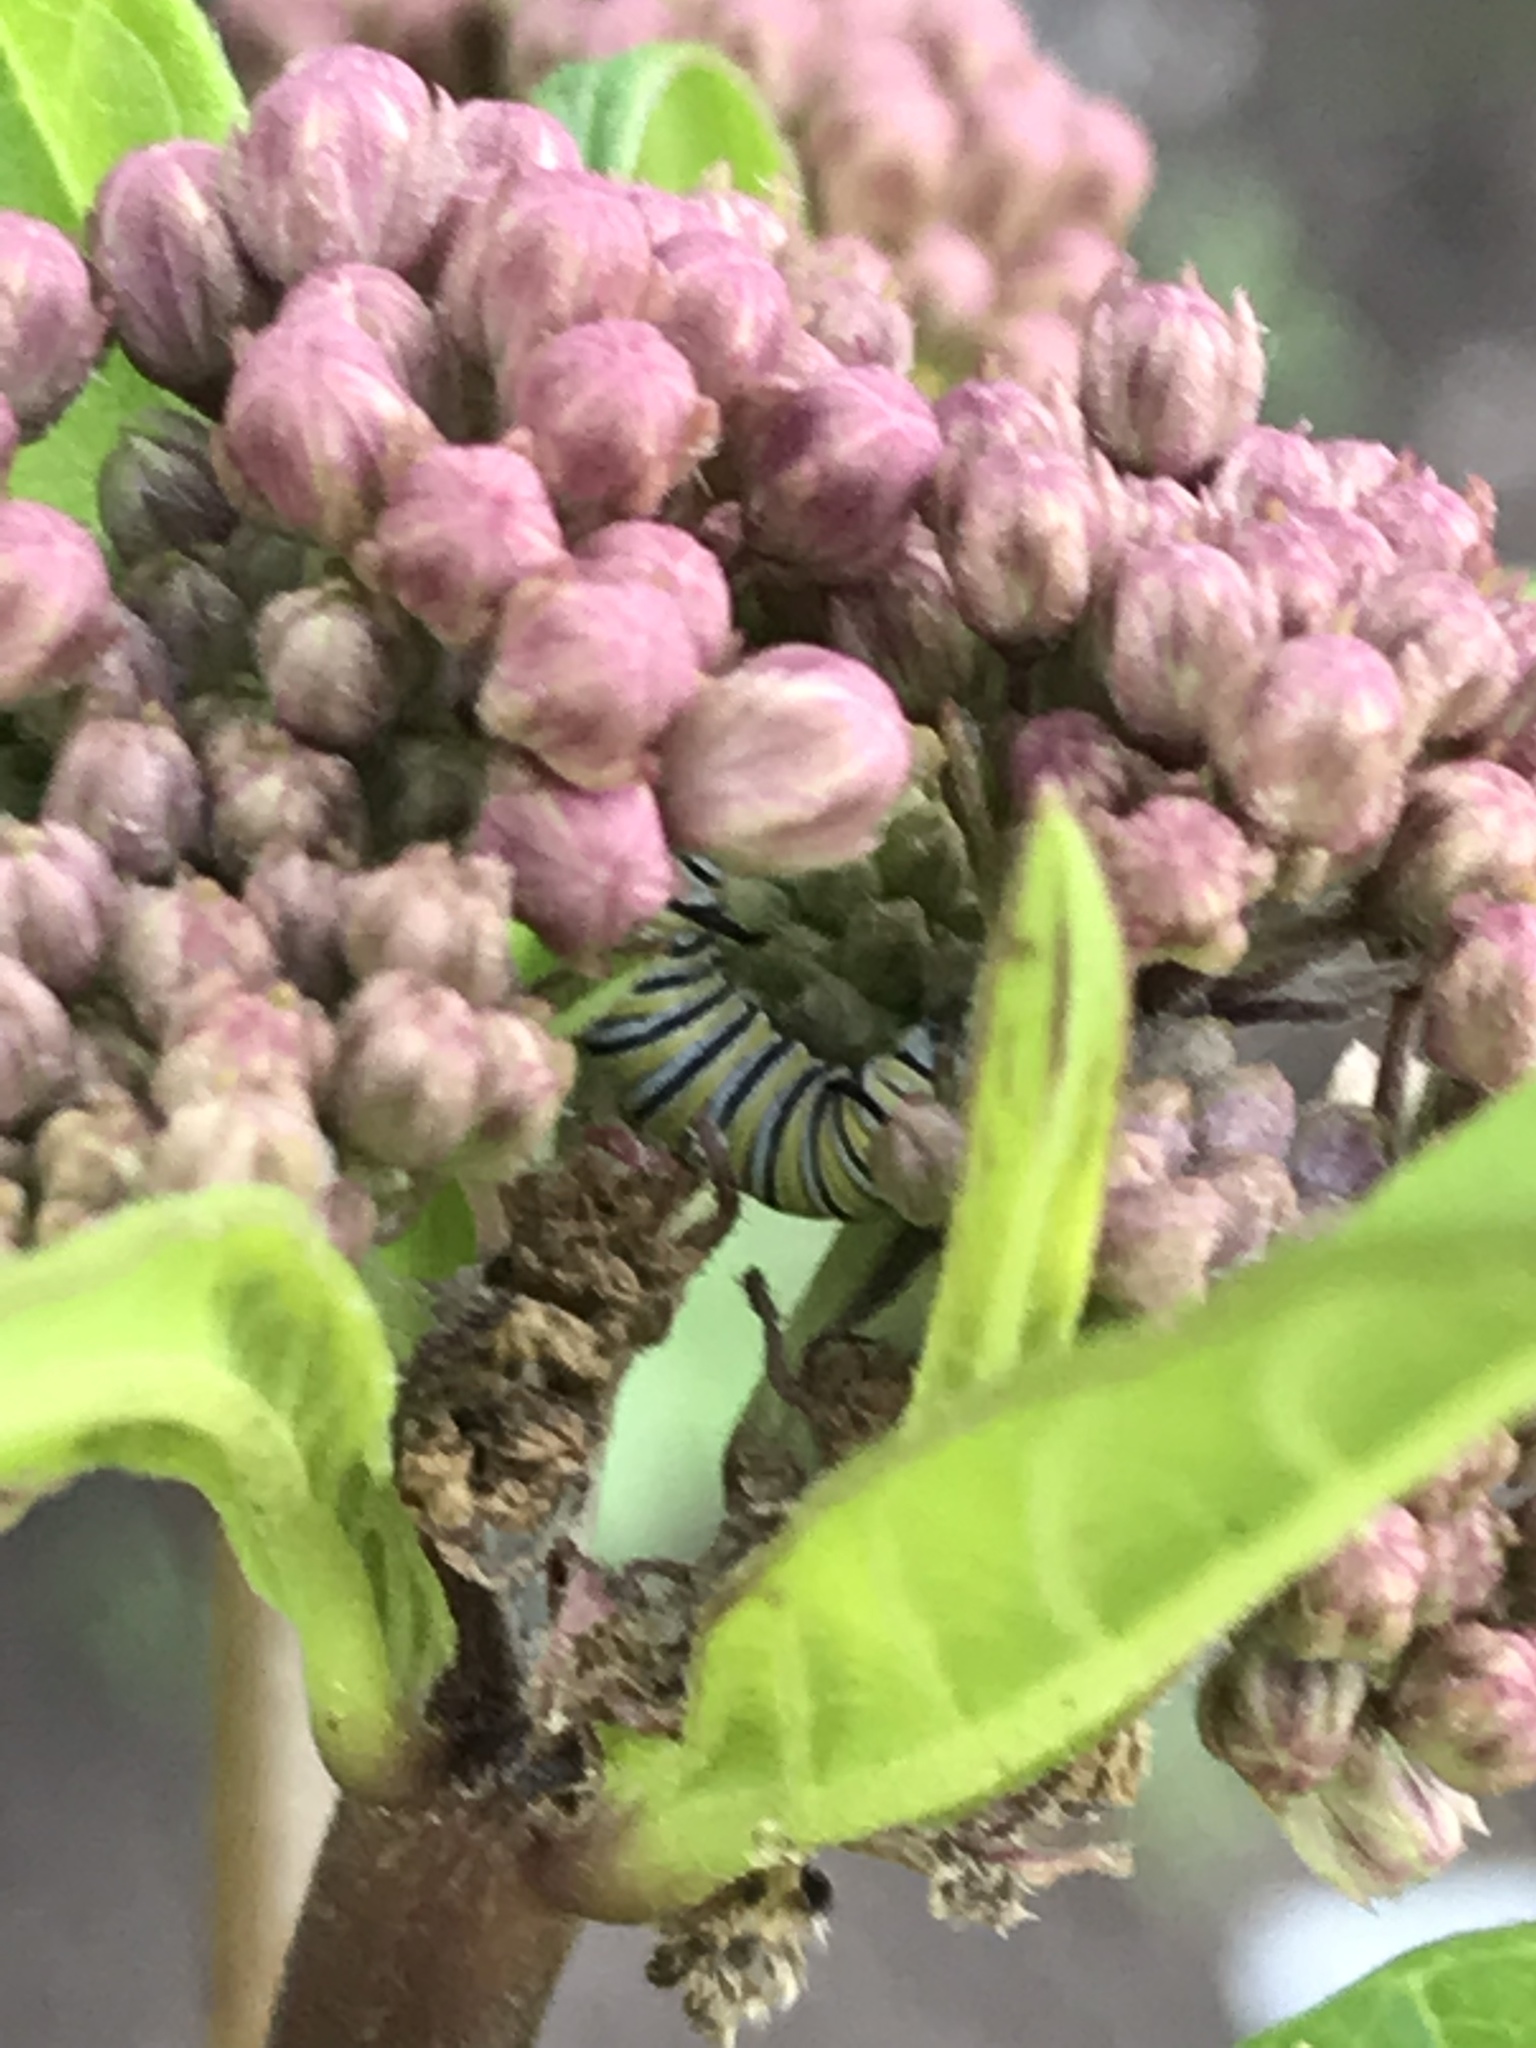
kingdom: Animalia
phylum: Arthropoda
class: Insecta
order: Lepidoptera
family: Nymphalidae
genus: Danaus
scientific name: Danaus plexippus
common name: Monarch
